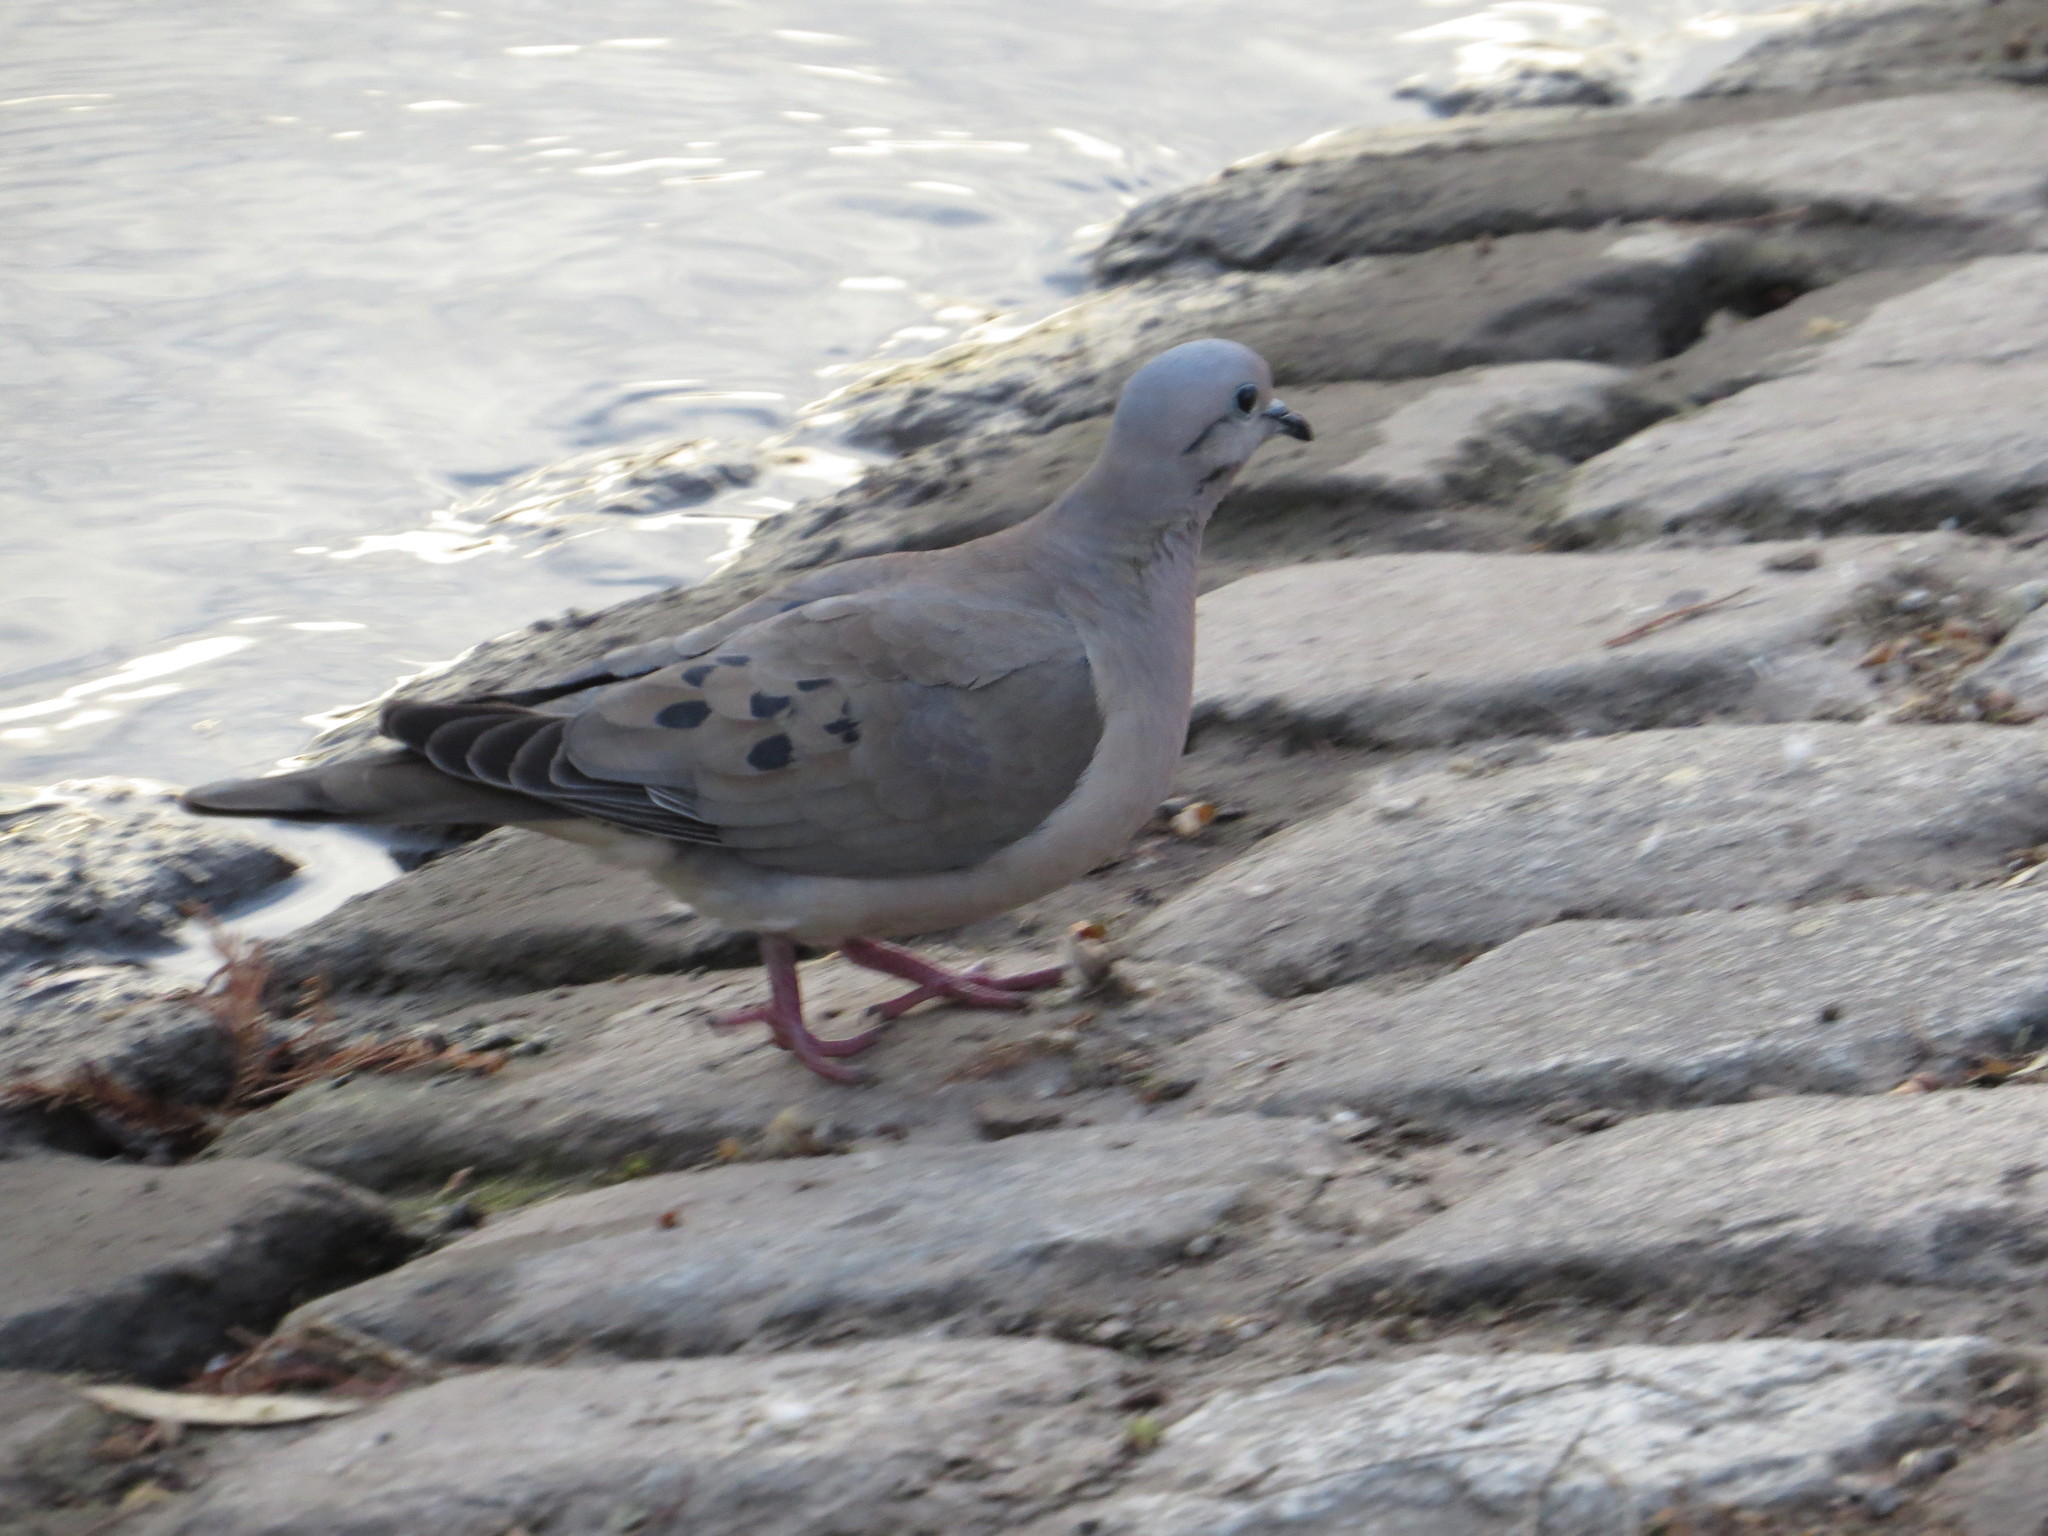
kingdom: Animalia
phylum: Chordata
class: Aves
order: Columbiformes
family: Columbidae
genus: Zenaida
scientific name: Zenaida auriculata
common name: Eared dove
